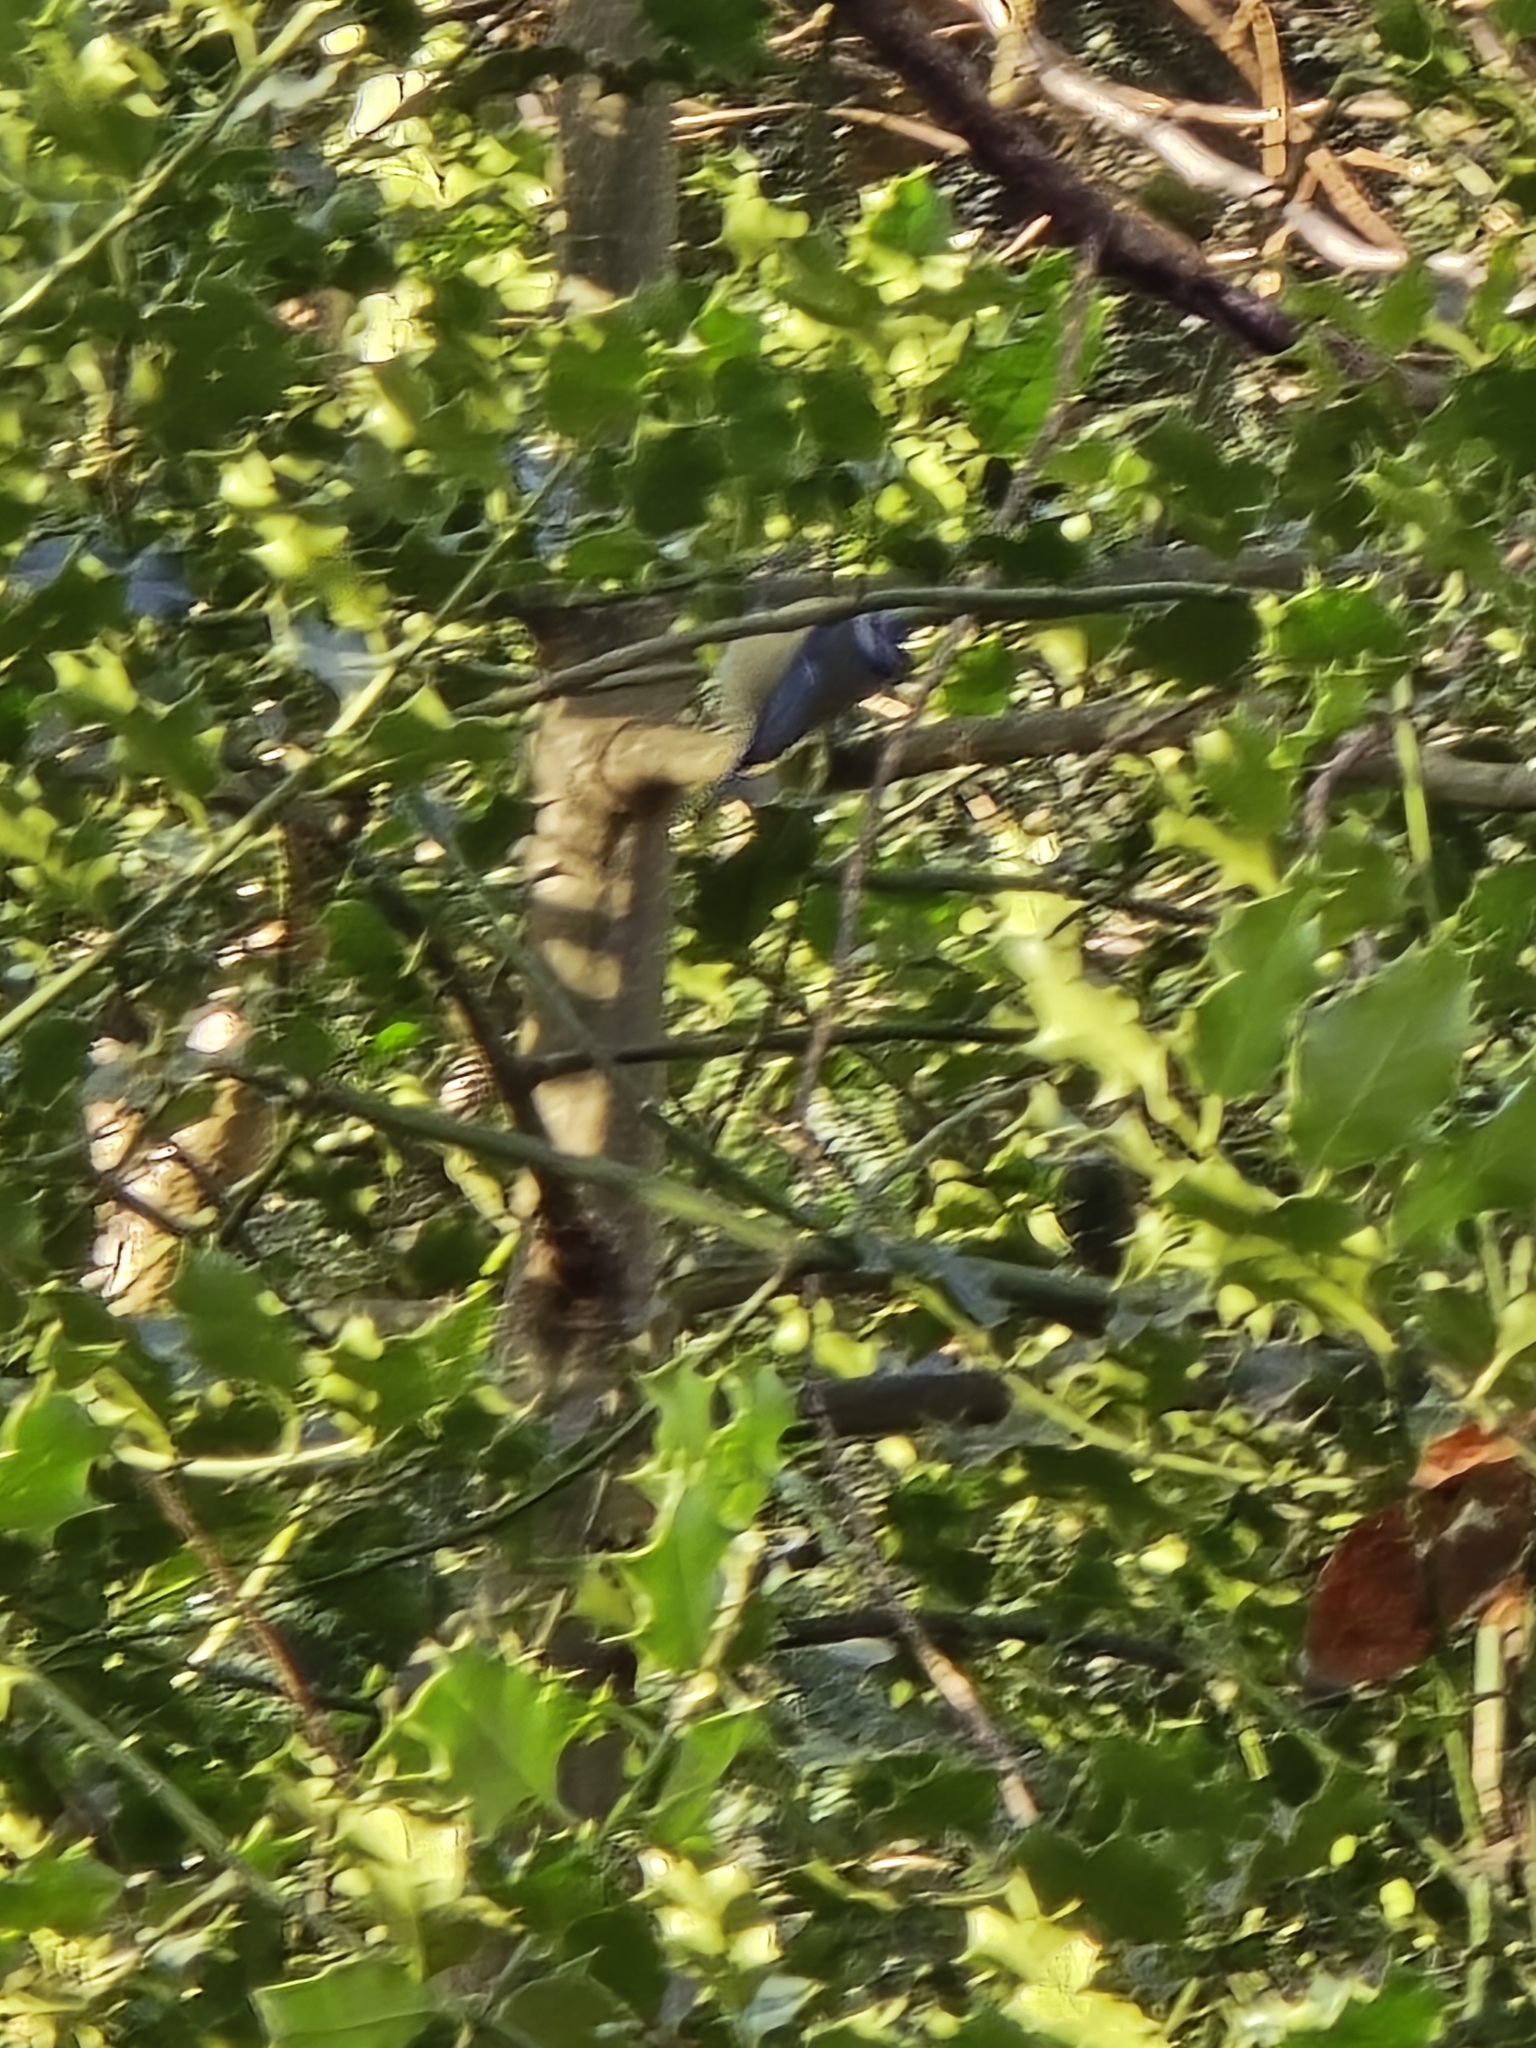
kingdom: Animalia
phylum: Chordata
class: Aves
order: Passeriformes
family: Paridae
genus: Cyanistes
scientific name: Cyanistes caeruleus
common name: Eurasian blue tit
